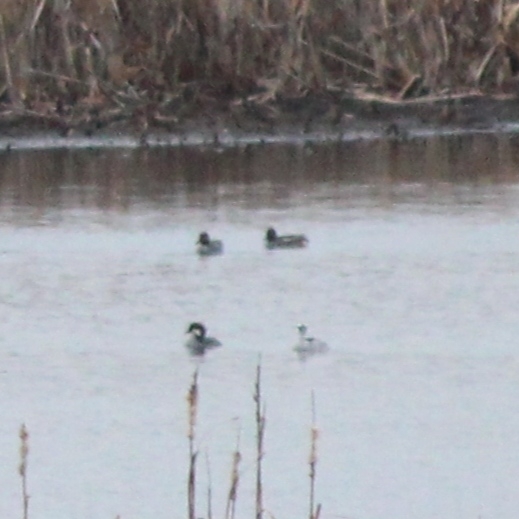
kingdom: Animalia
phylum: Chordata
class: Aves
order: Anseriformes
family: Anatidae
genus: Mergellus
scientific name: Mergellus albellus
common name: Smew
